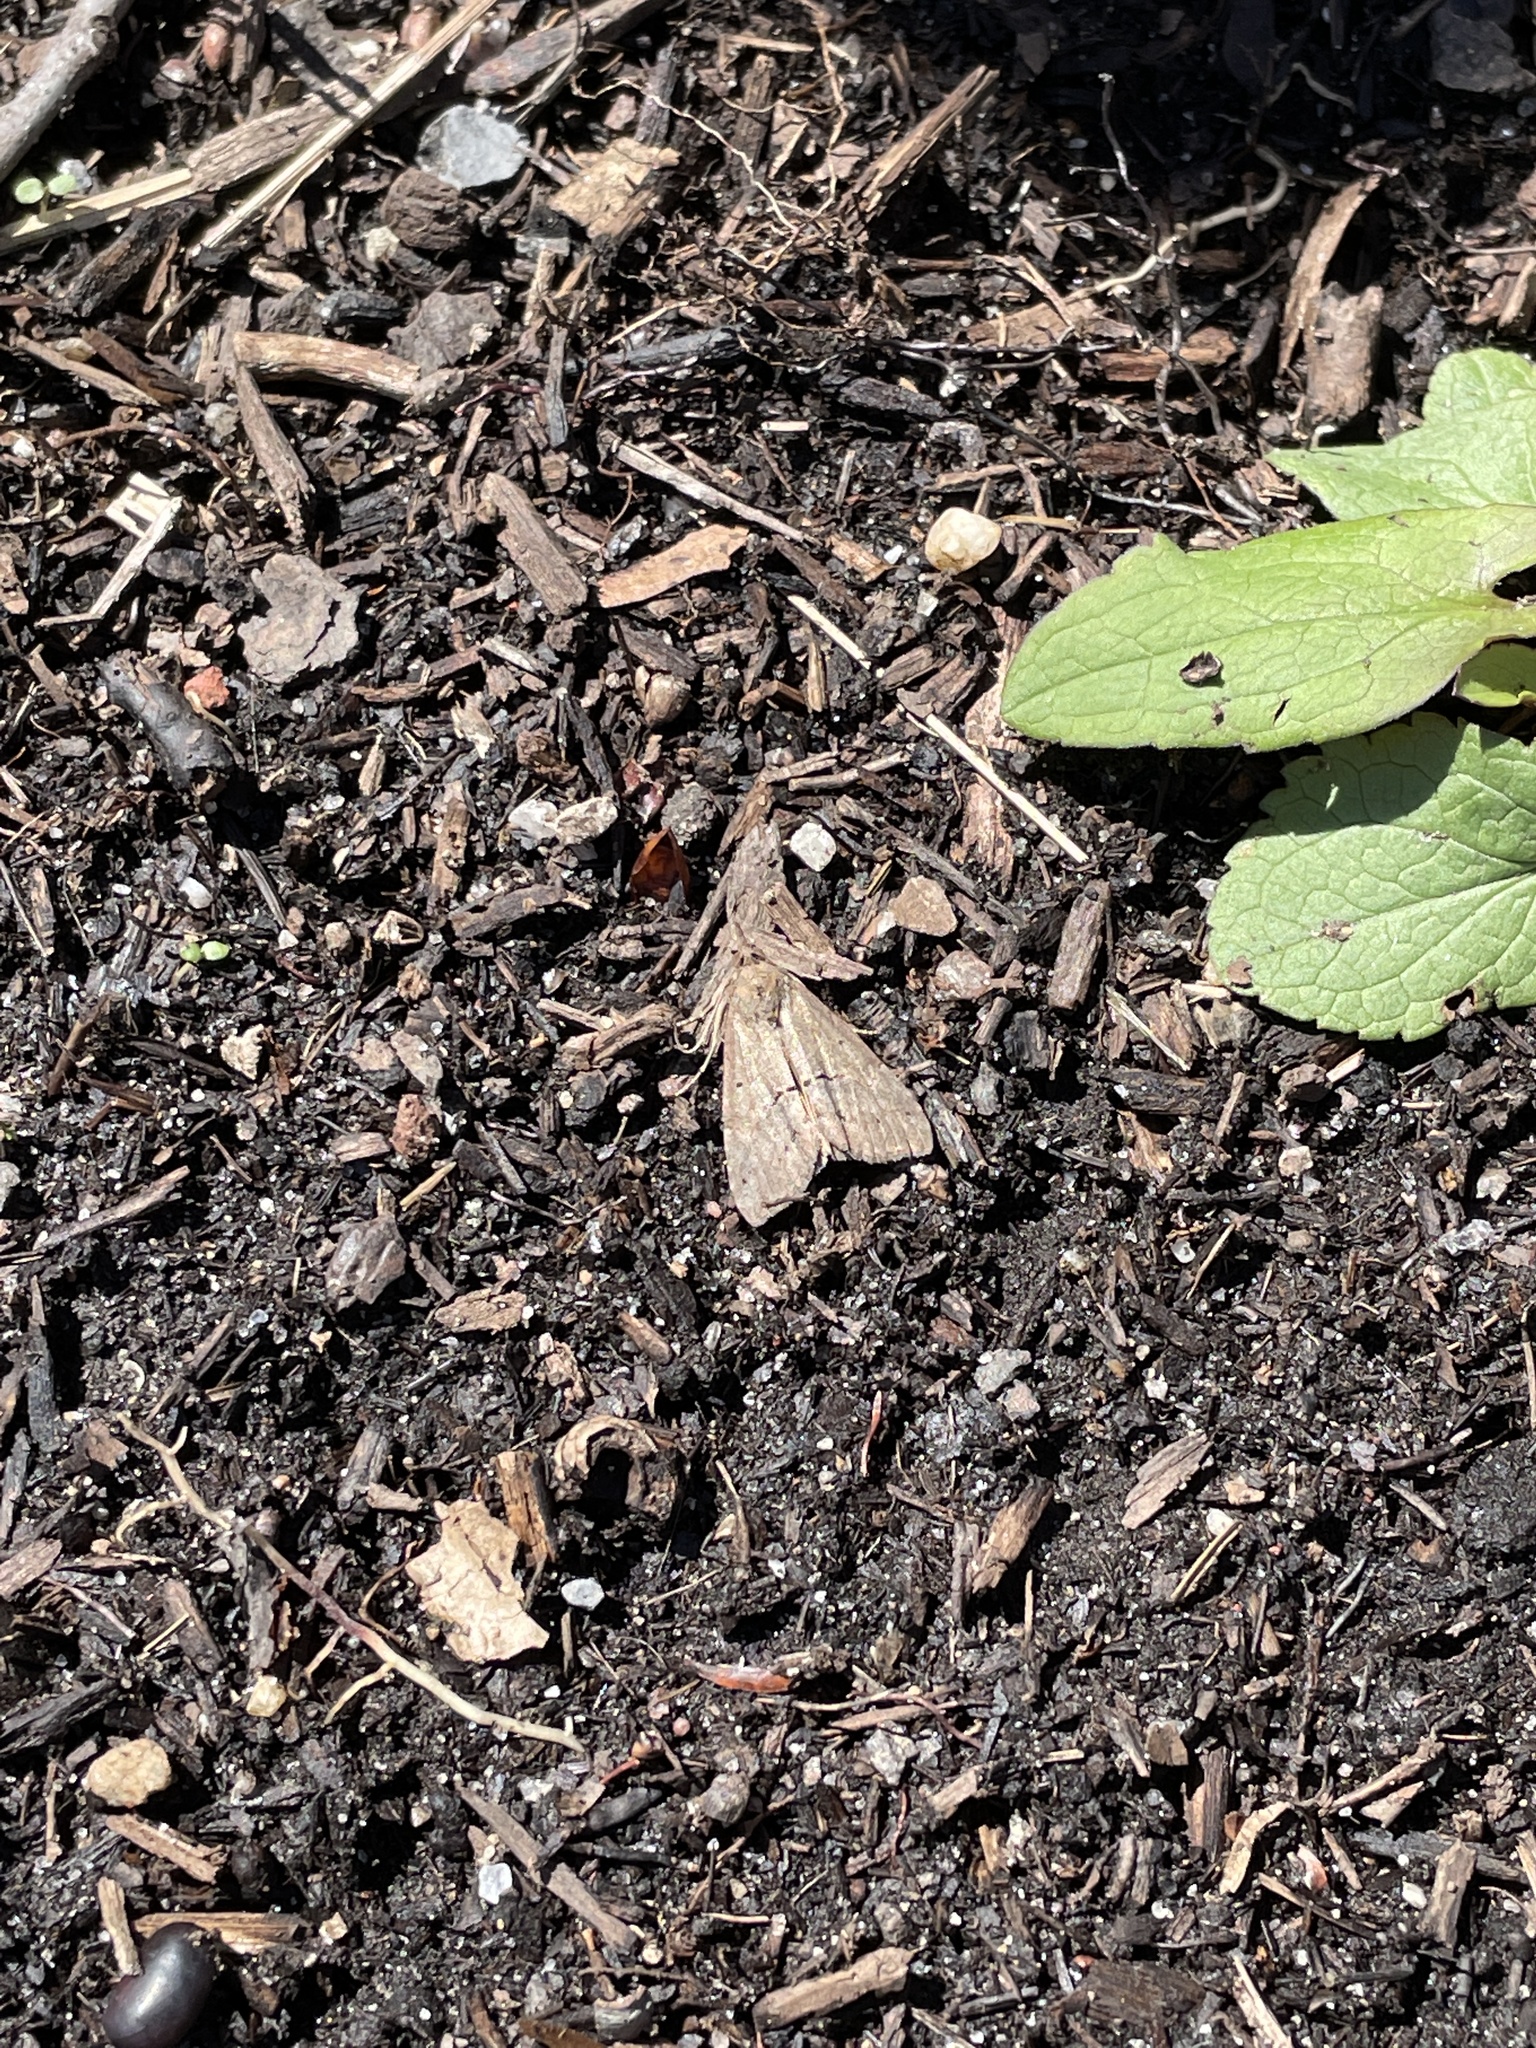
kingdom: Animalia
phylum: Arthropoda
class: Insecta
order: Lepidoptera
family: Erebidae
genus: Hypena
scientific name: Hypena scabra
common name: Green cloverworm
